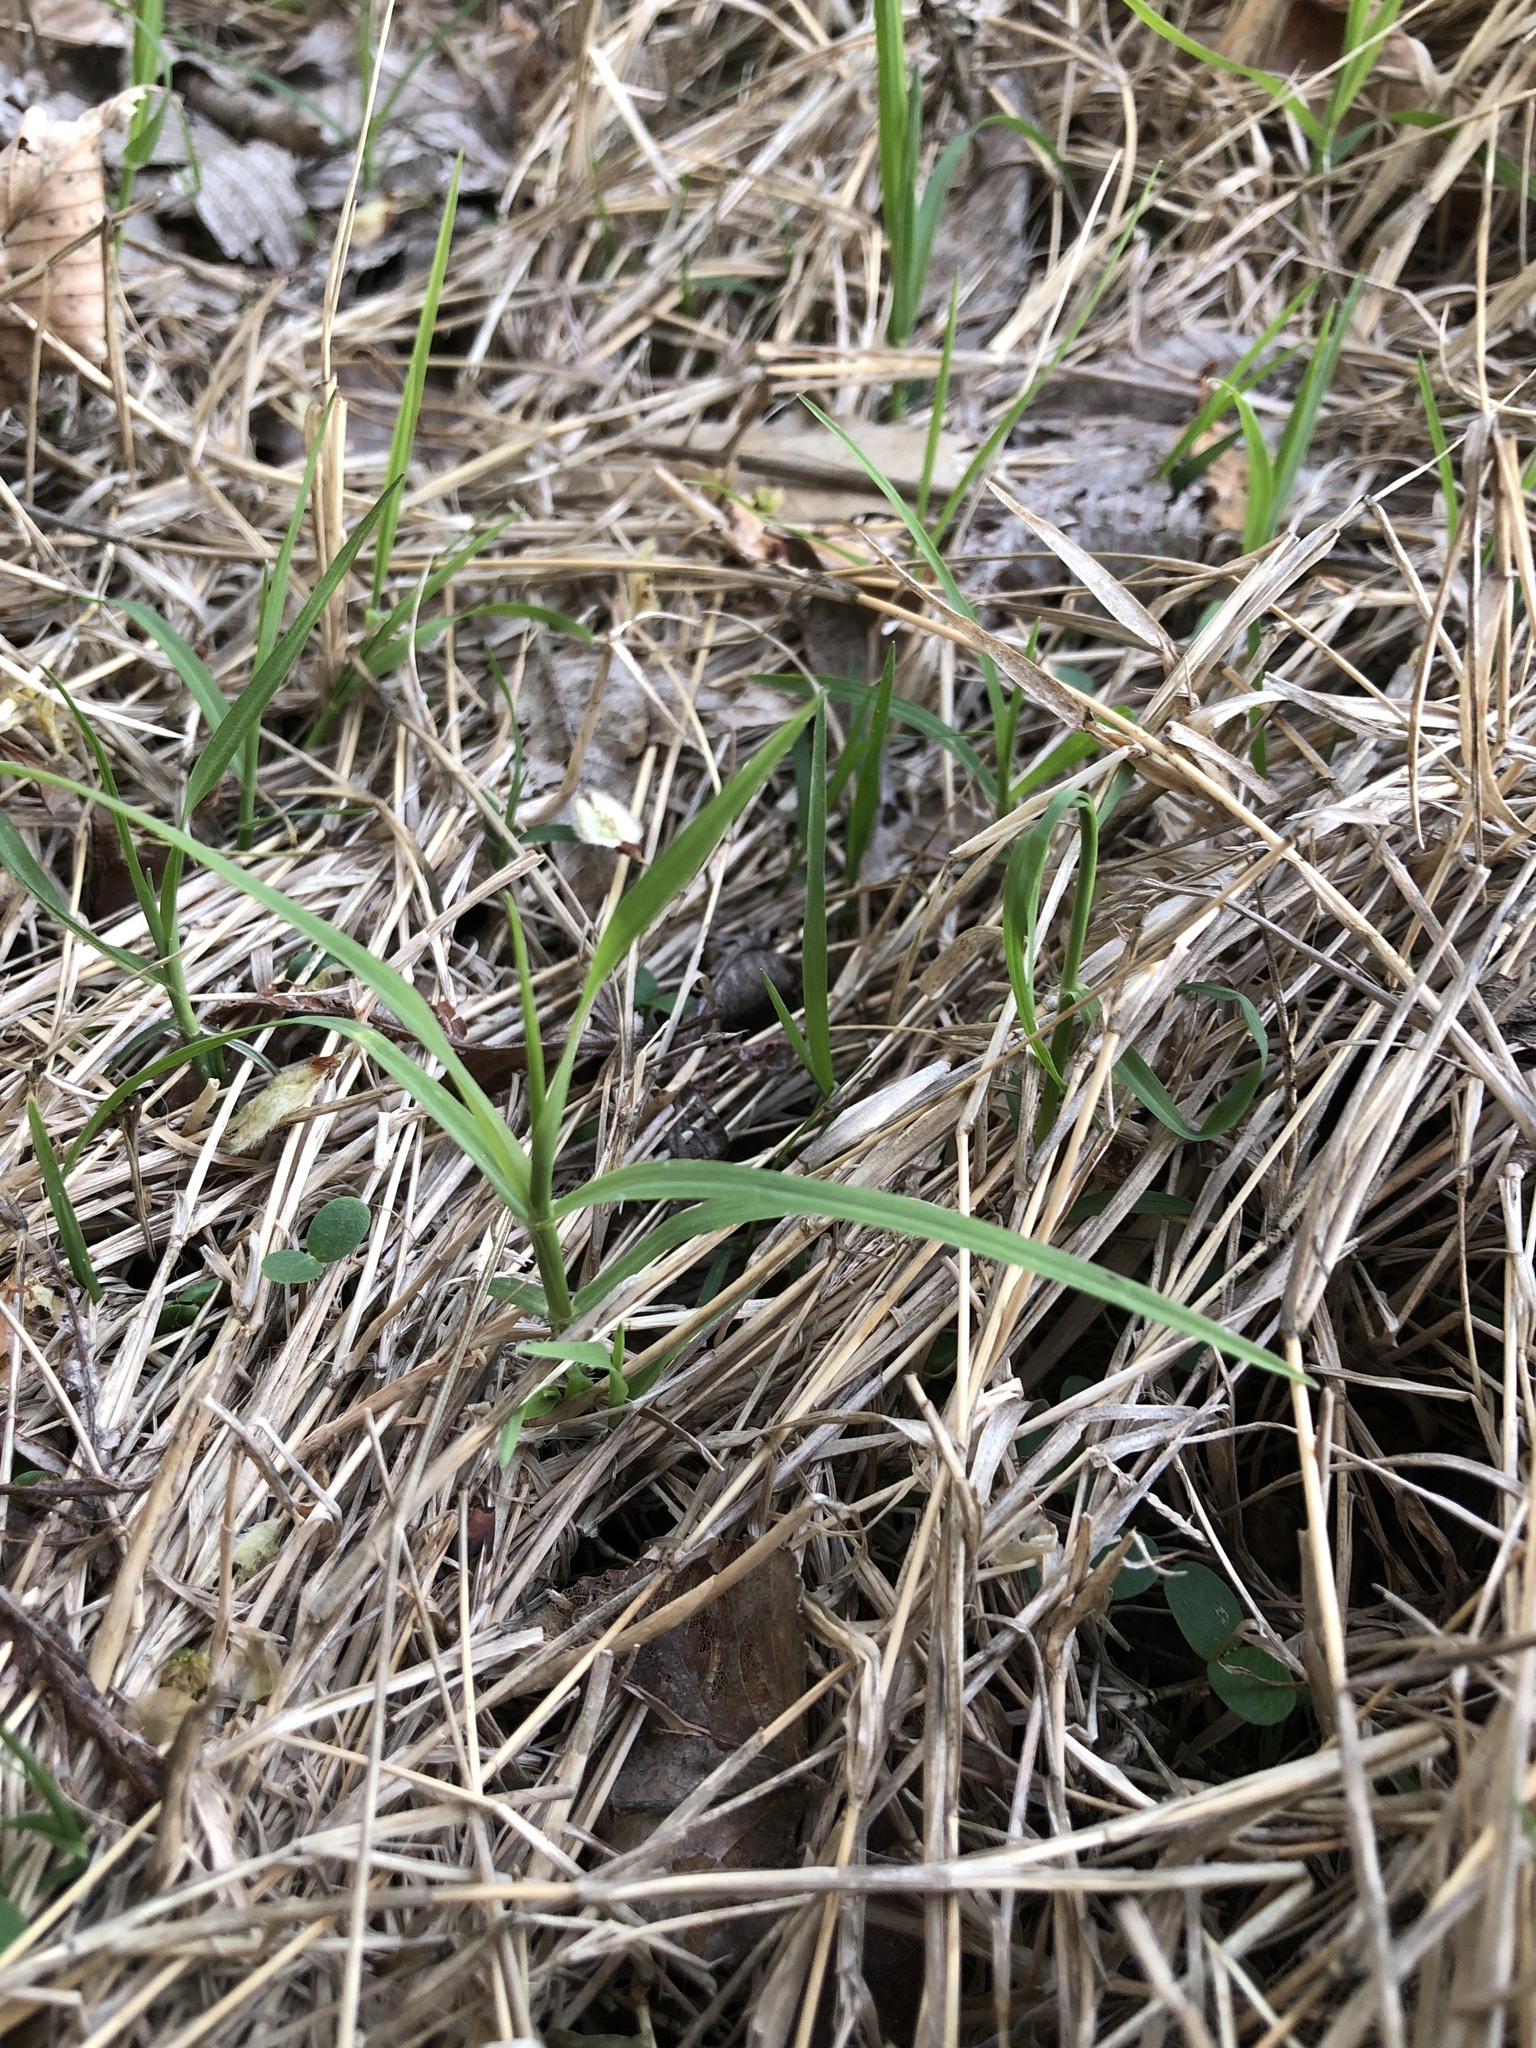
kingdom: Plantae
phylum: Tracheophyta
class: Liliopsida
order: Poales
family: Poaceae
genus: Cynodon
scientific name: Cynodon dactylon
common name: Bermuda grass
